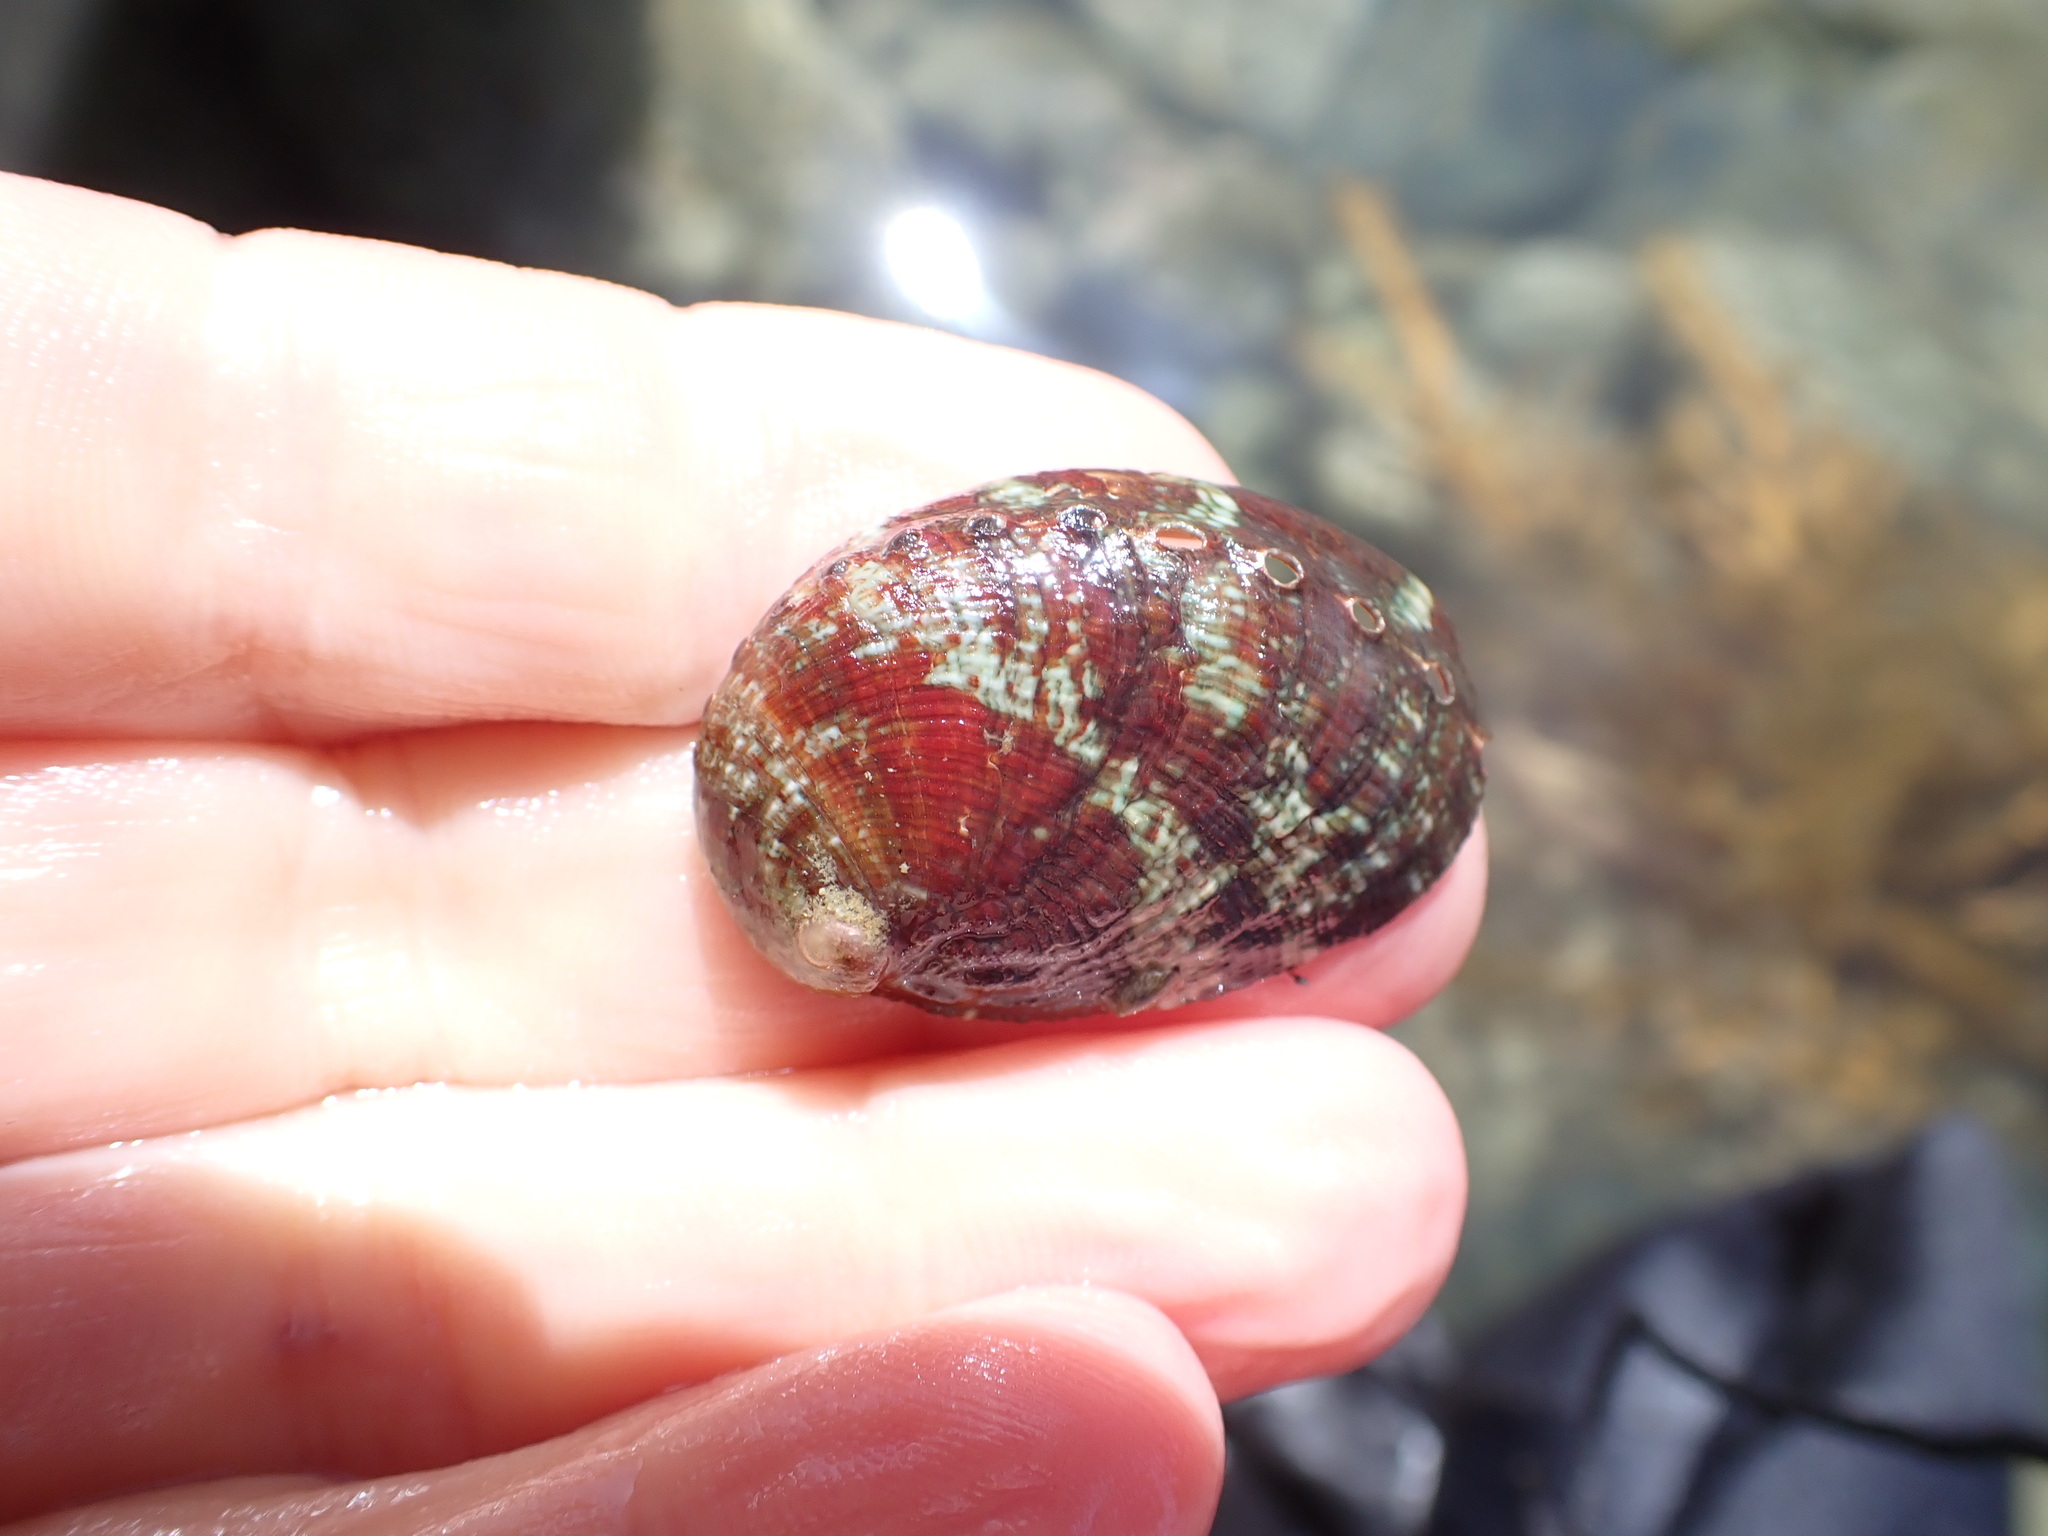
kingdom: Animalia
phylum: Mollusca
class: Gastropoda
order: Lepetellida
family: Haliotidae
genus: Haliotis
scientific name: Haliotis virginea
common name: Whitefoot paua
